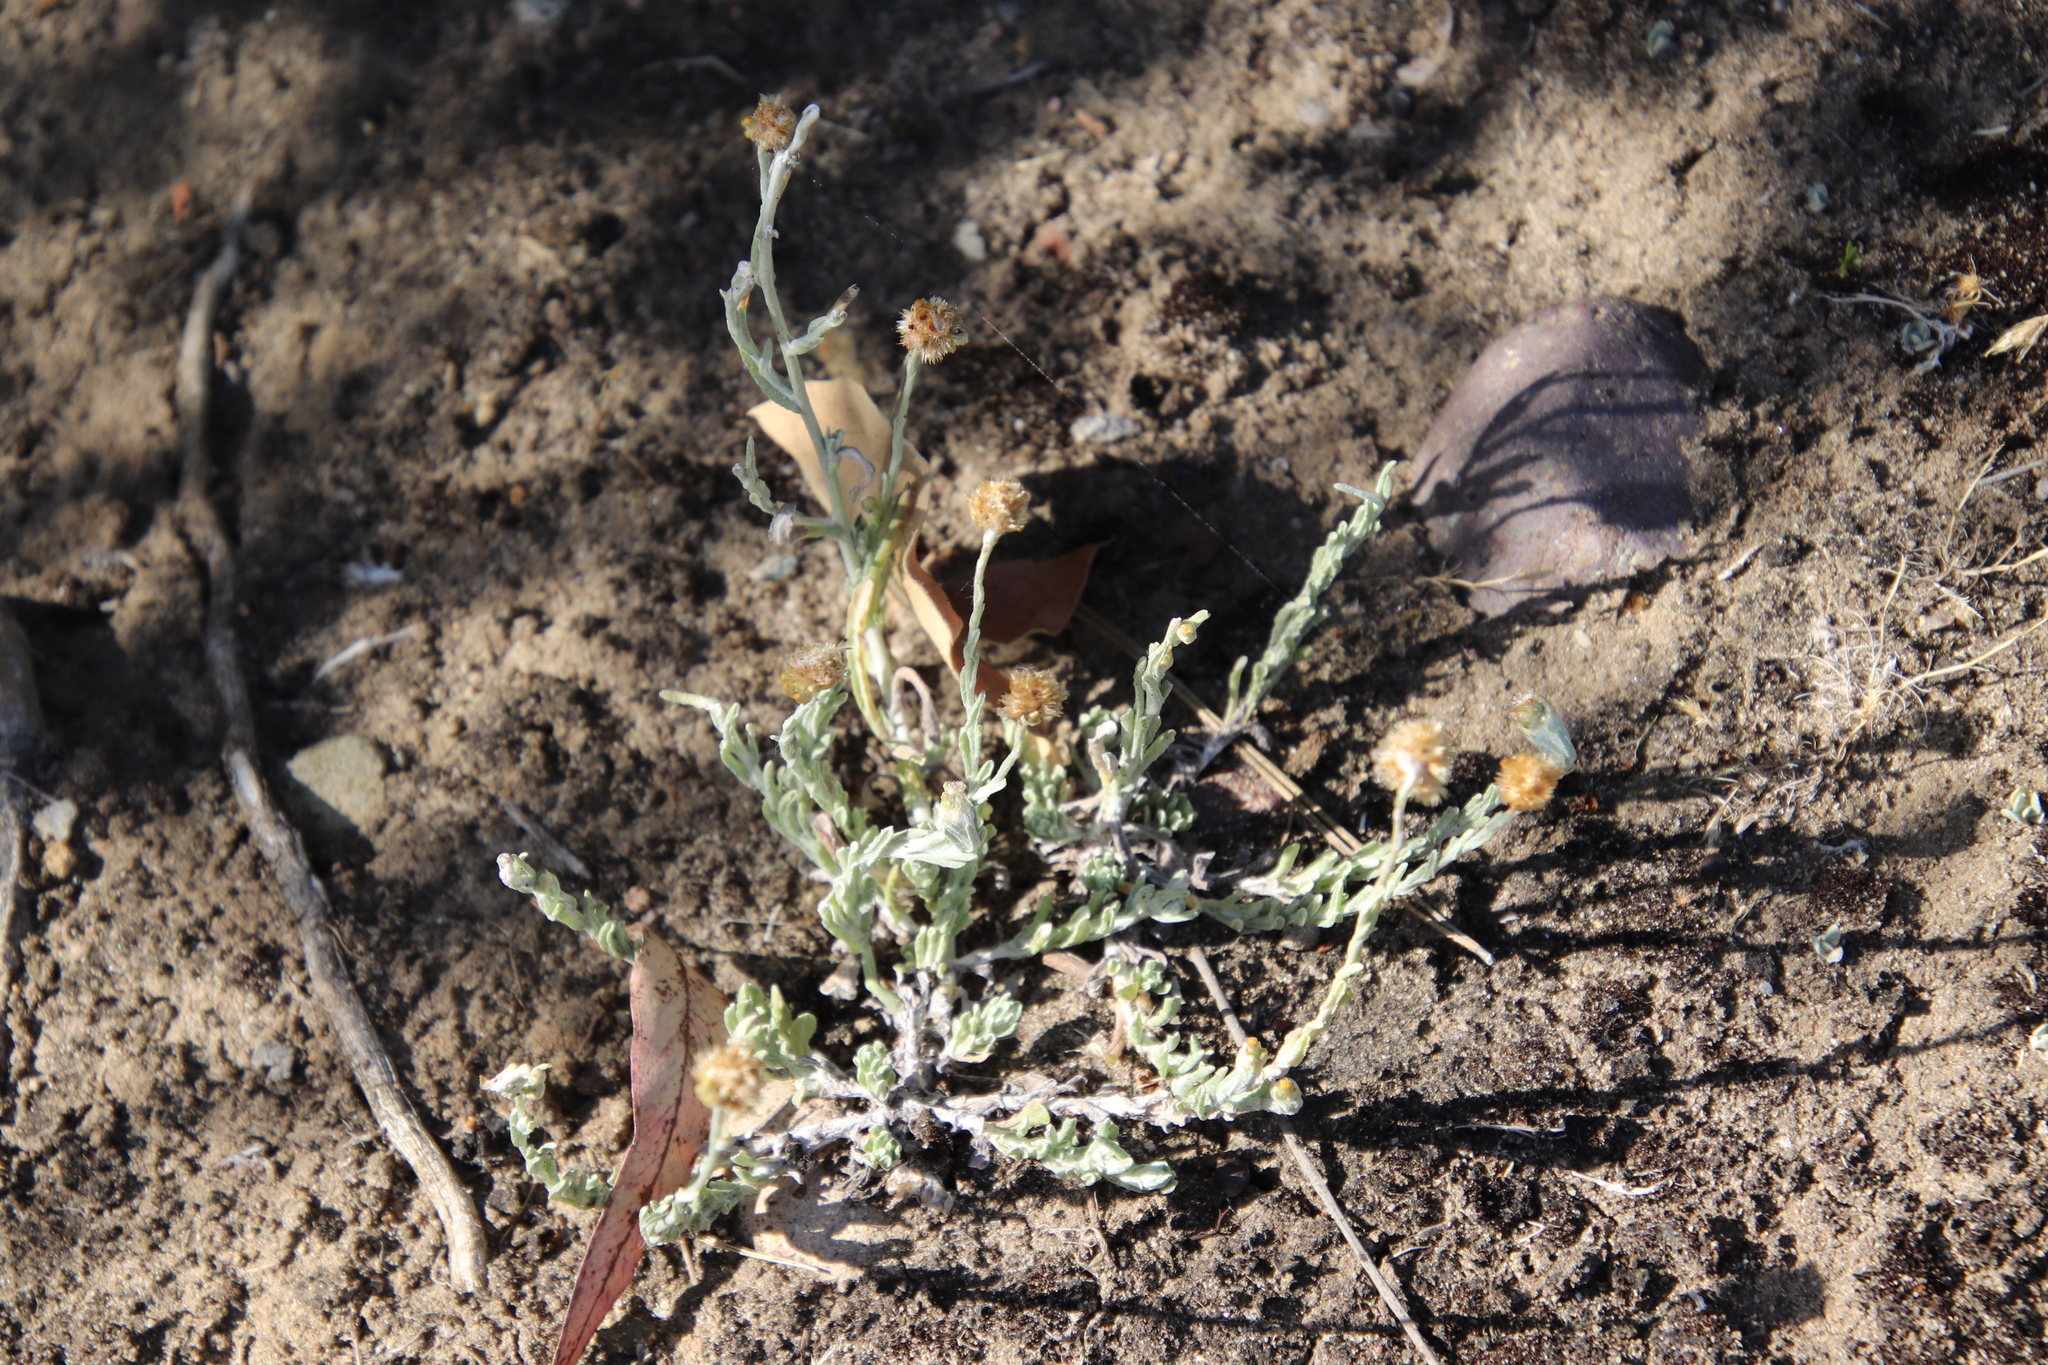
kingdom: Plantae
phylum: Tracheophyta
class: Magnoliopsida
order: Asterales
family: Asteraceae
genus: Helichrysum
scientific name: Helichrysum luteoalbum
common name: Daisy
